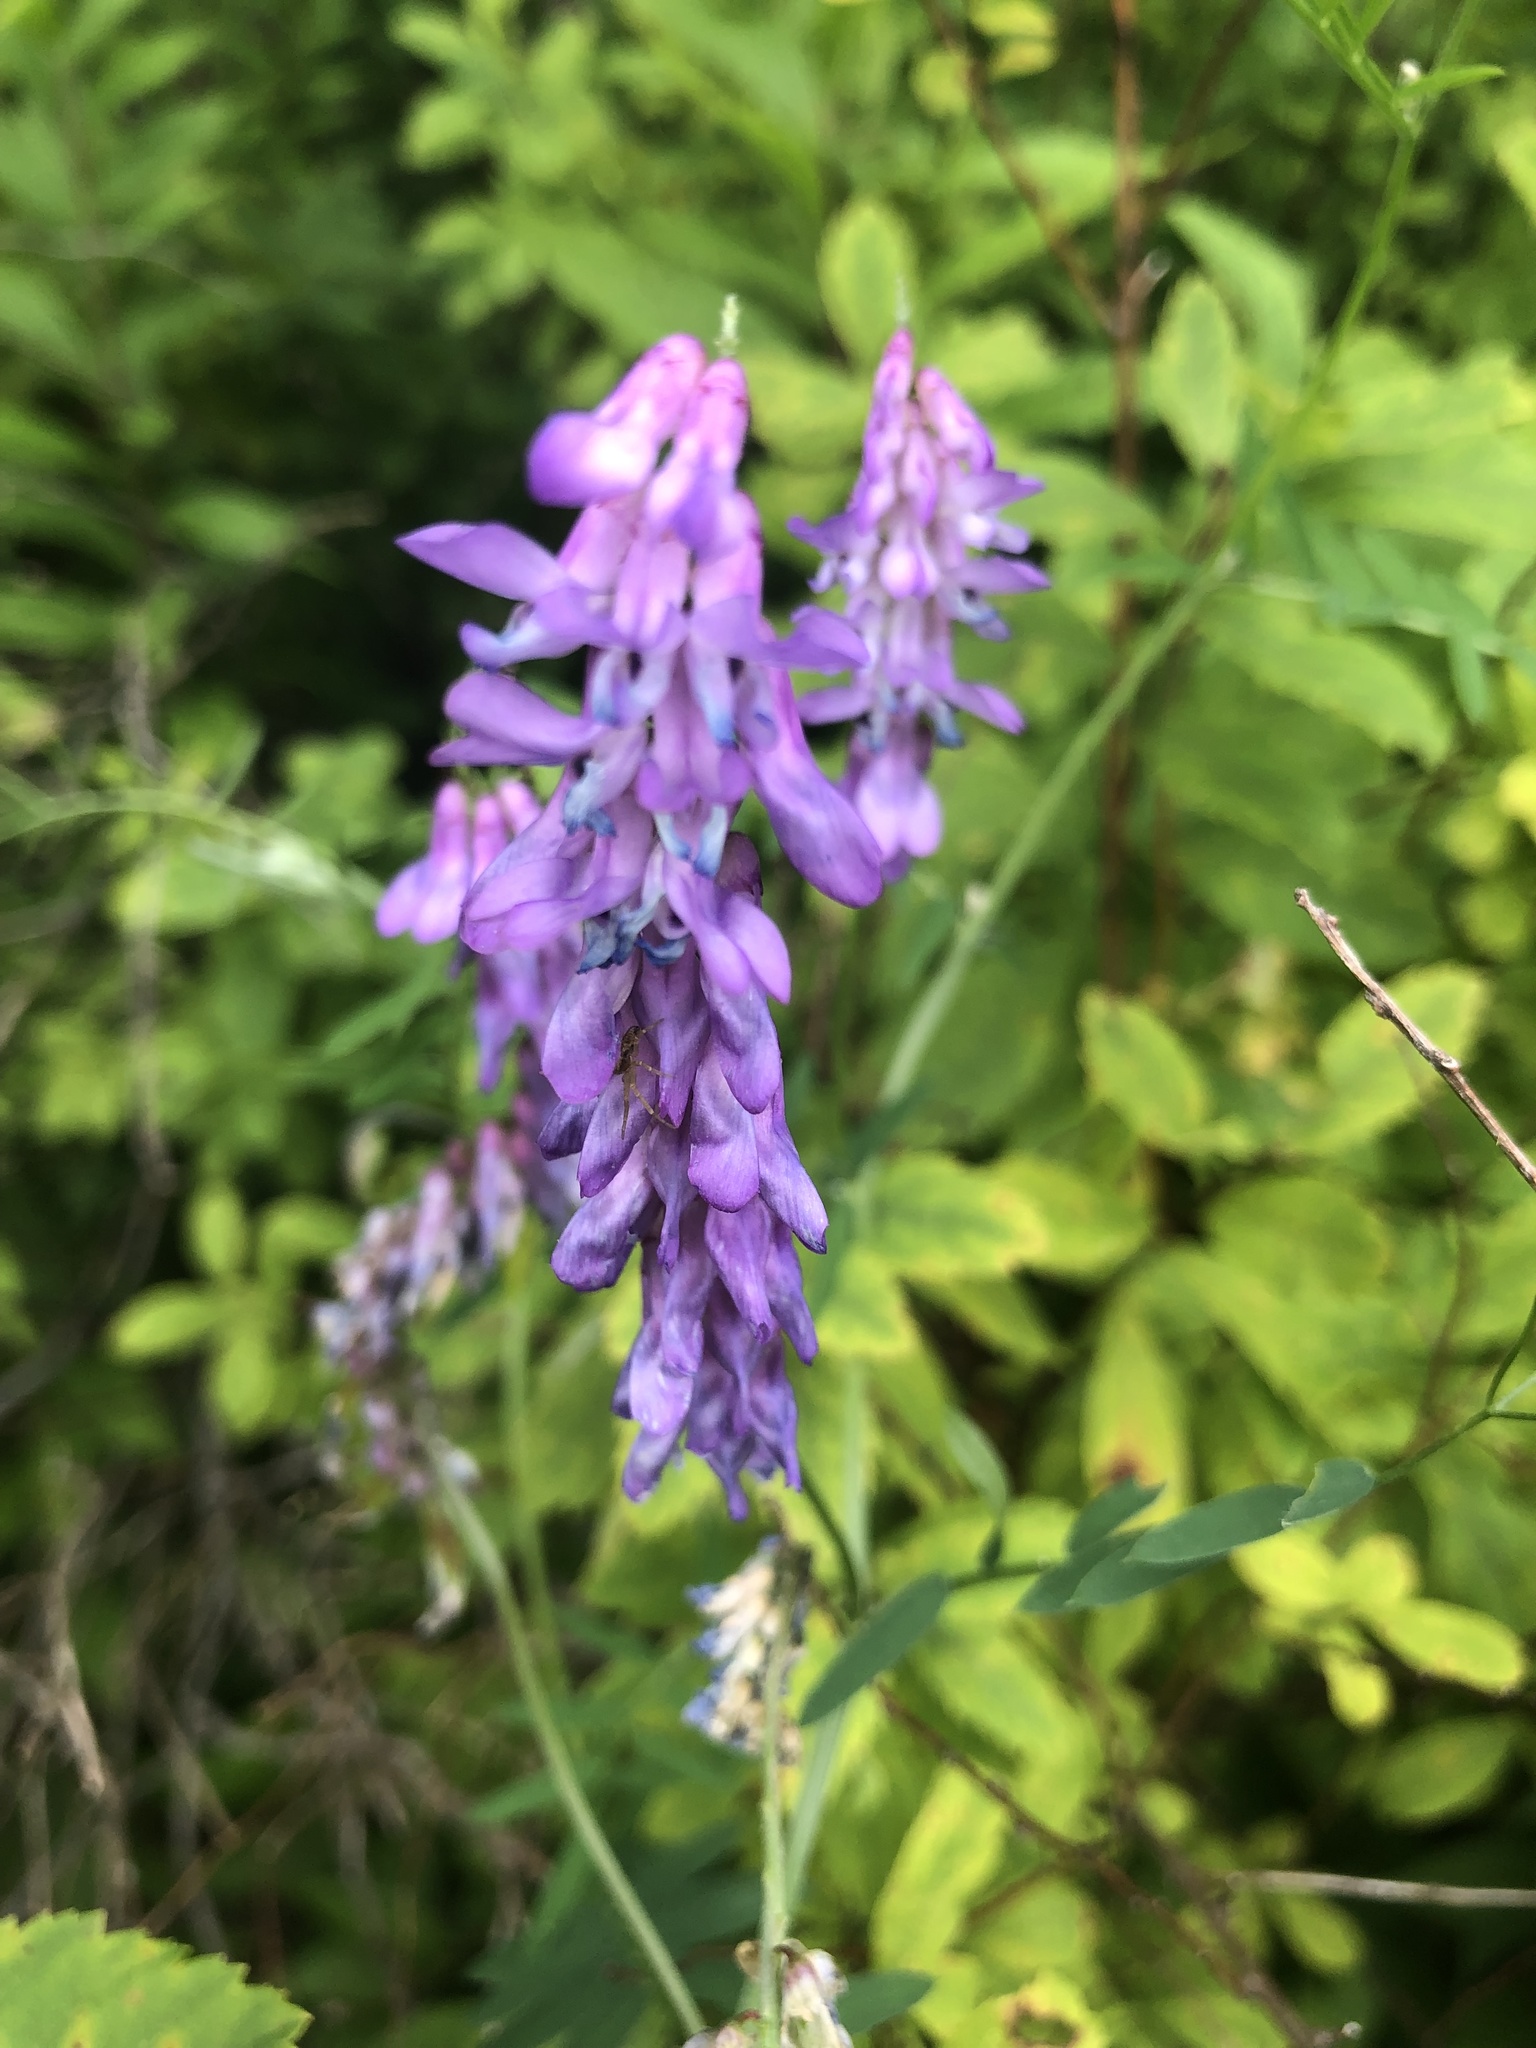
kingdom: Plantae
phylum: Tracheophyta
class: Magnoliopsida
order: Fabales
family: Fabaceae
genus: Vicia
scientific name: Vicia cracca
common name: Bird vetch
